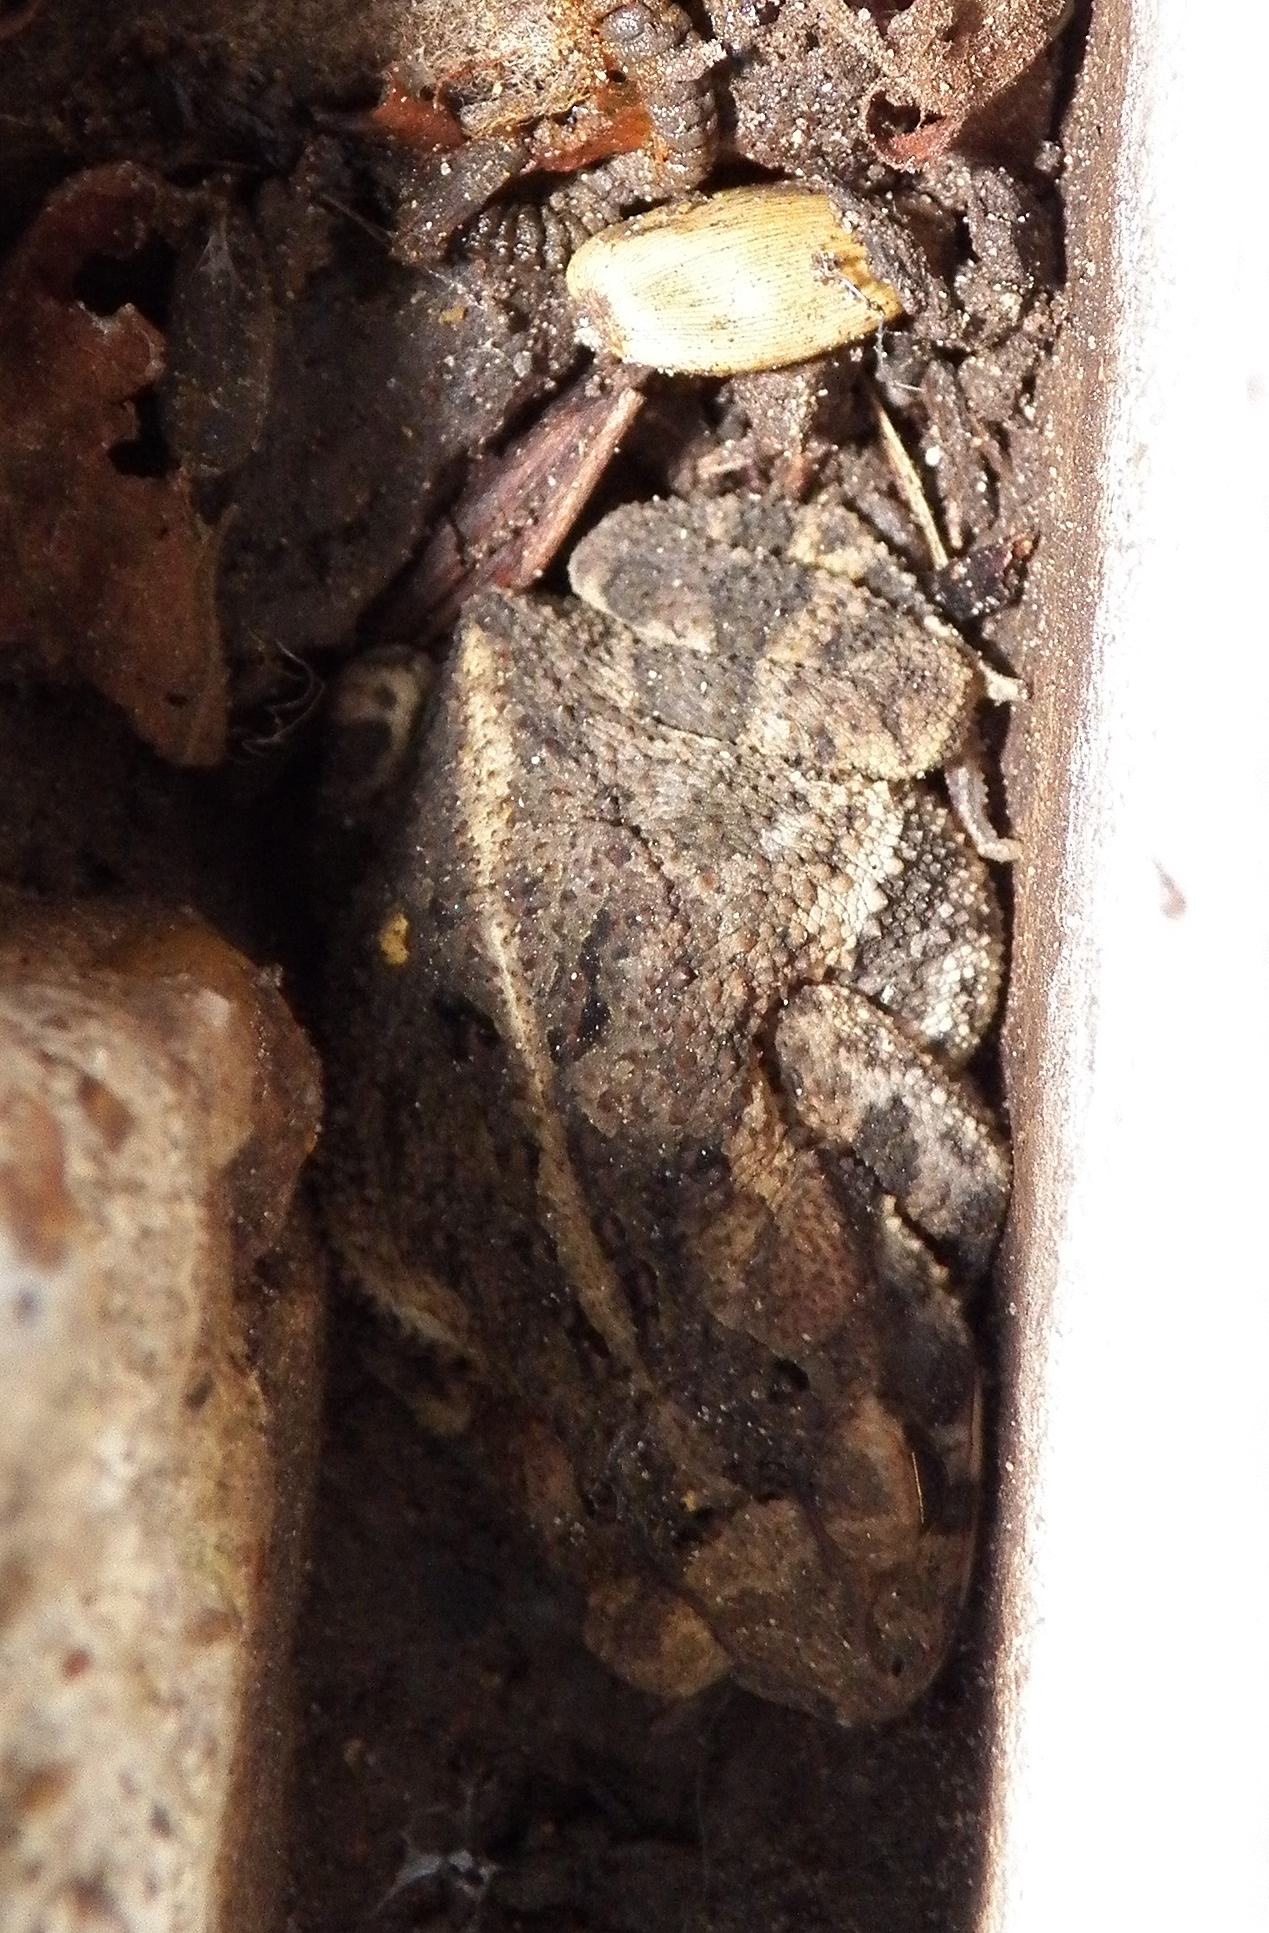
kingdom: Animalia
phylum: Chordata
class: Amphibia
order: Anura
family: Bufonidae
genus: Incilius
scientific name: Incilius nebulifer
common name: Gulf coast toad
